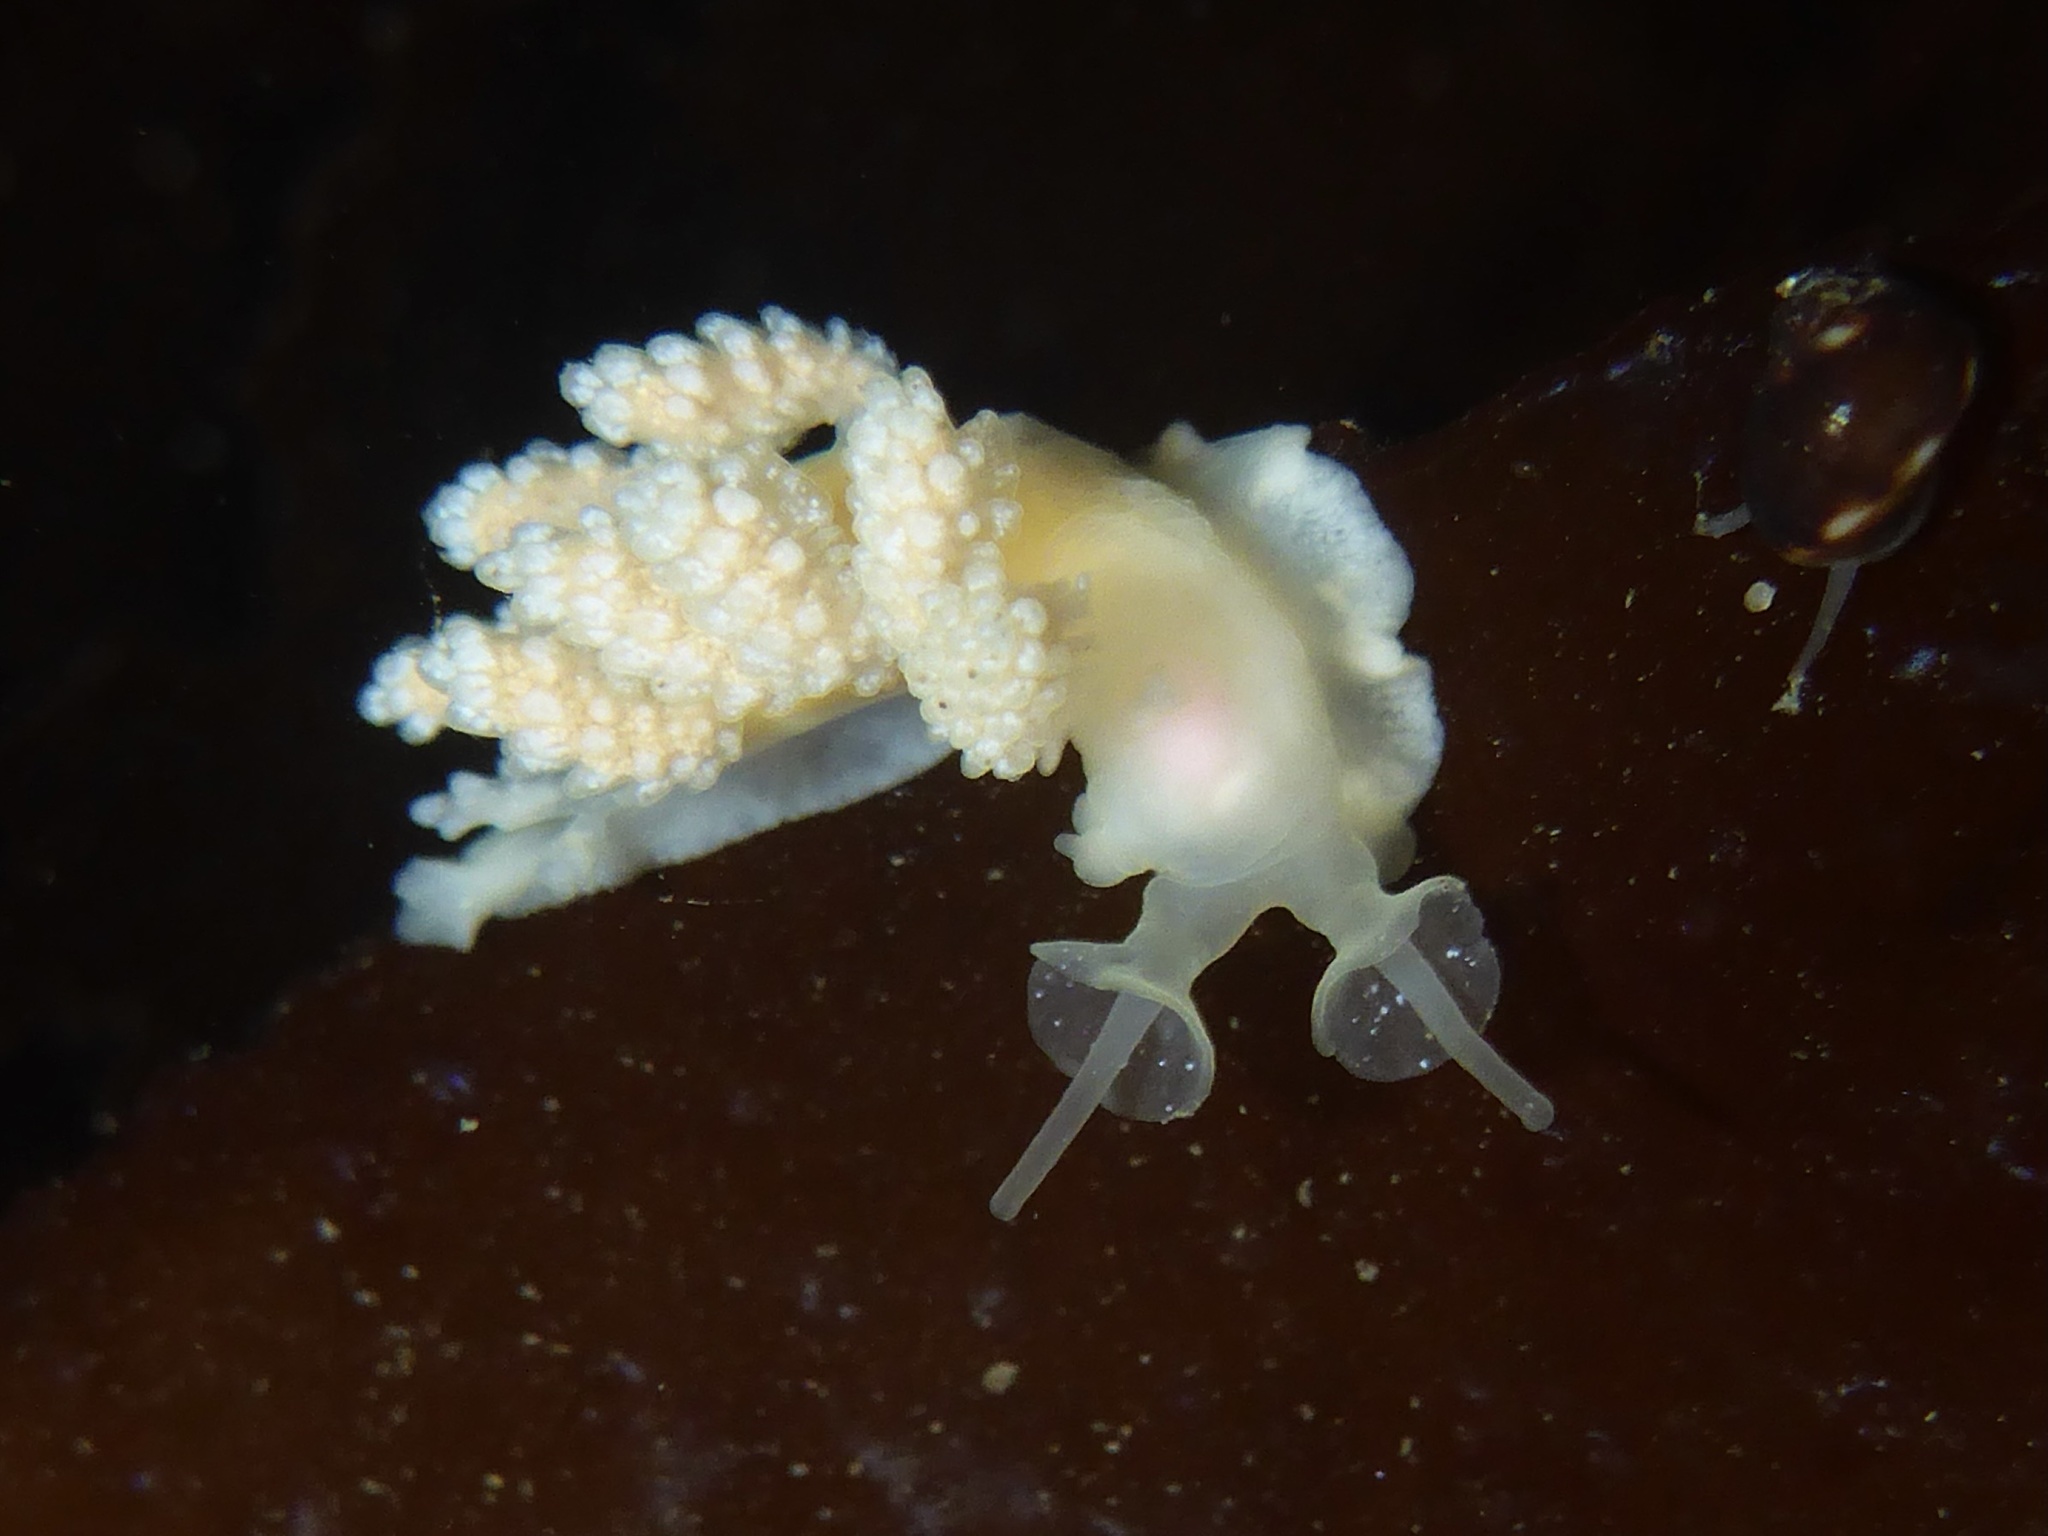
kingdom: Animalia
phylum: Mollusca
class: Gastropoda
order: Nudibranchia
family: Dotidae
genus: Doto
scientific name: Doto amyra
